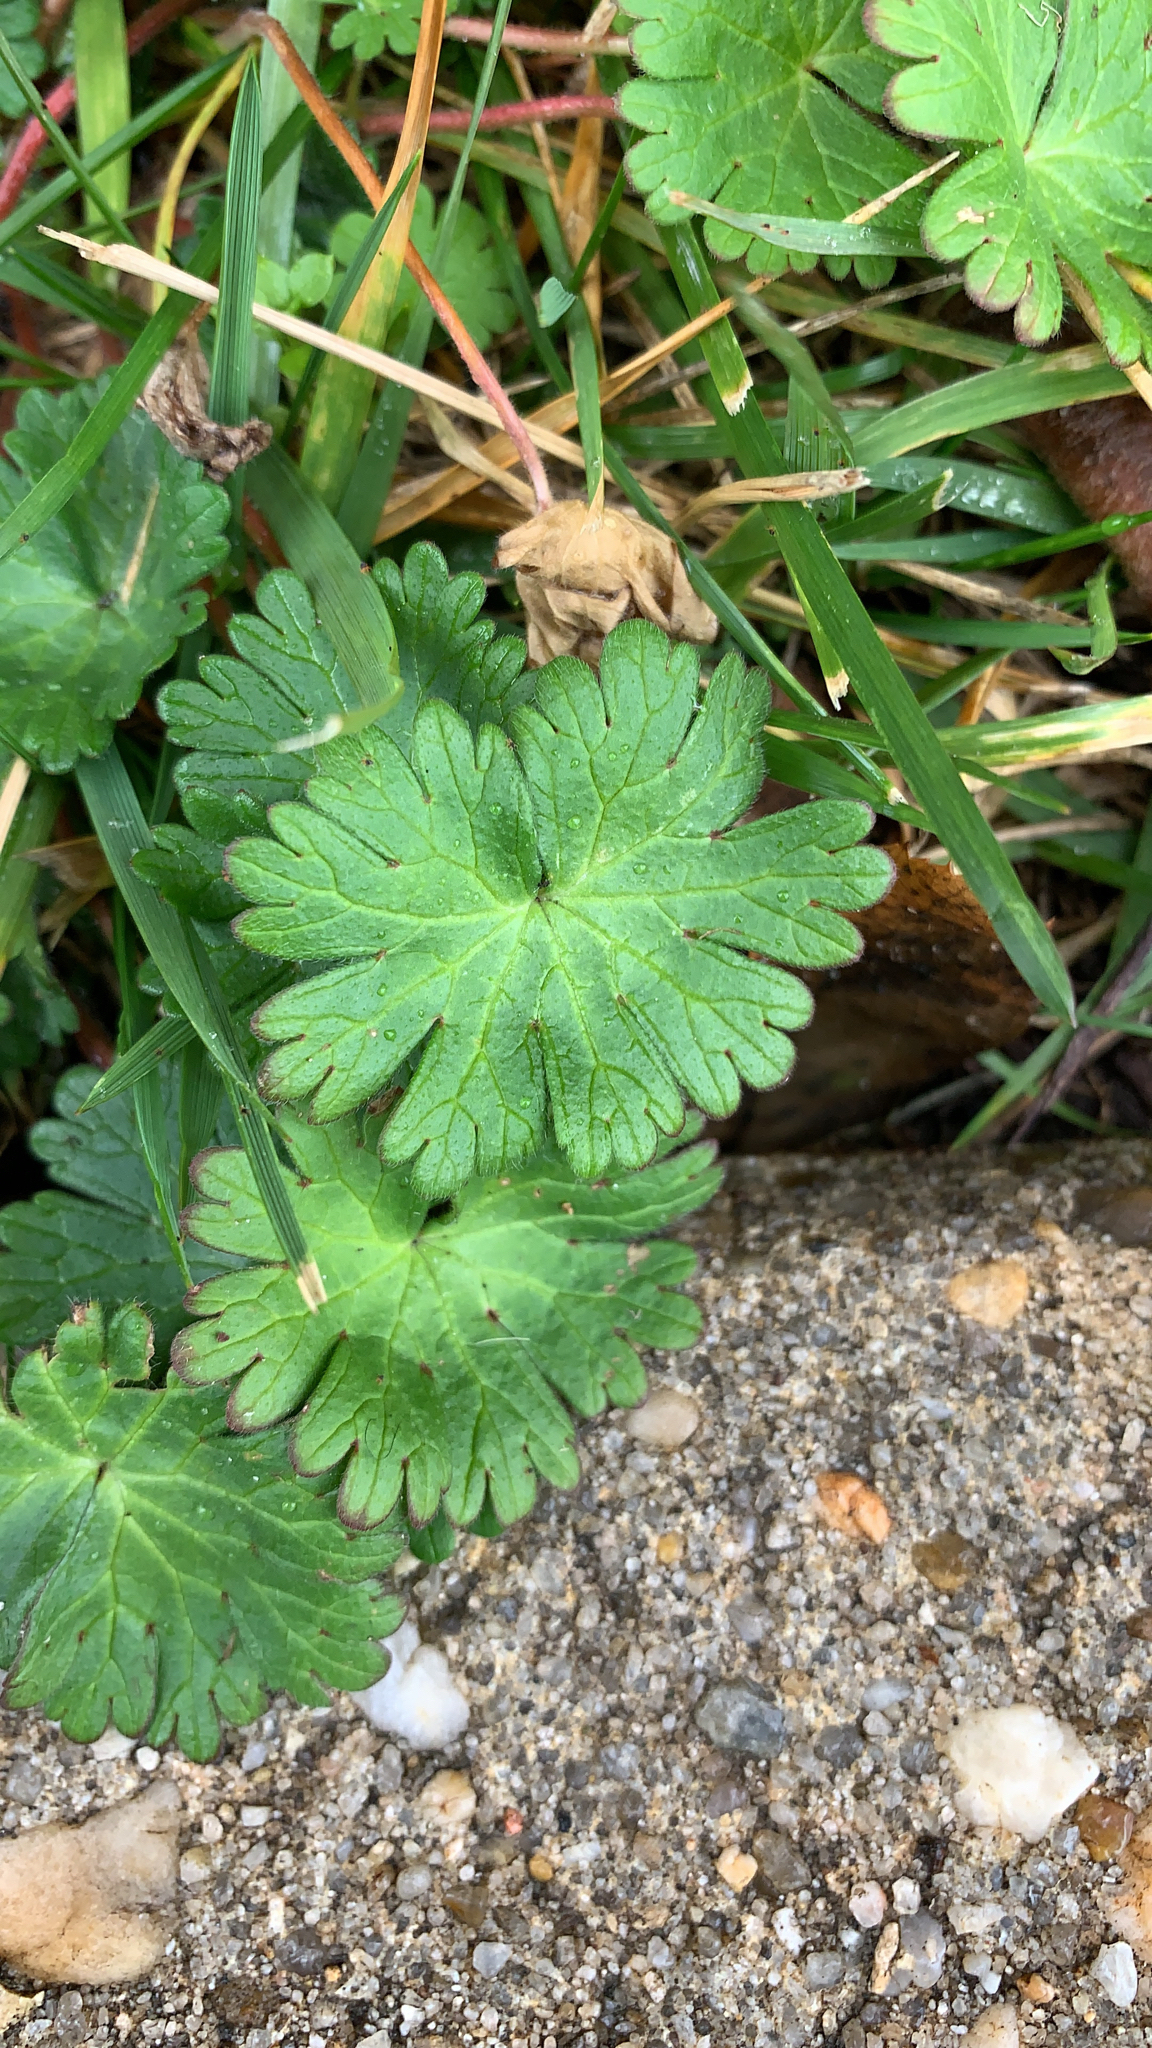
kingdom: Plantae
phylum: Tracheophyta
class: Magnoliopsida
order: Geraniales
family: Geraniaceae
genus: Geranium
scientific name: Geranium molle
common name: Dove's-foot crane's-bill
